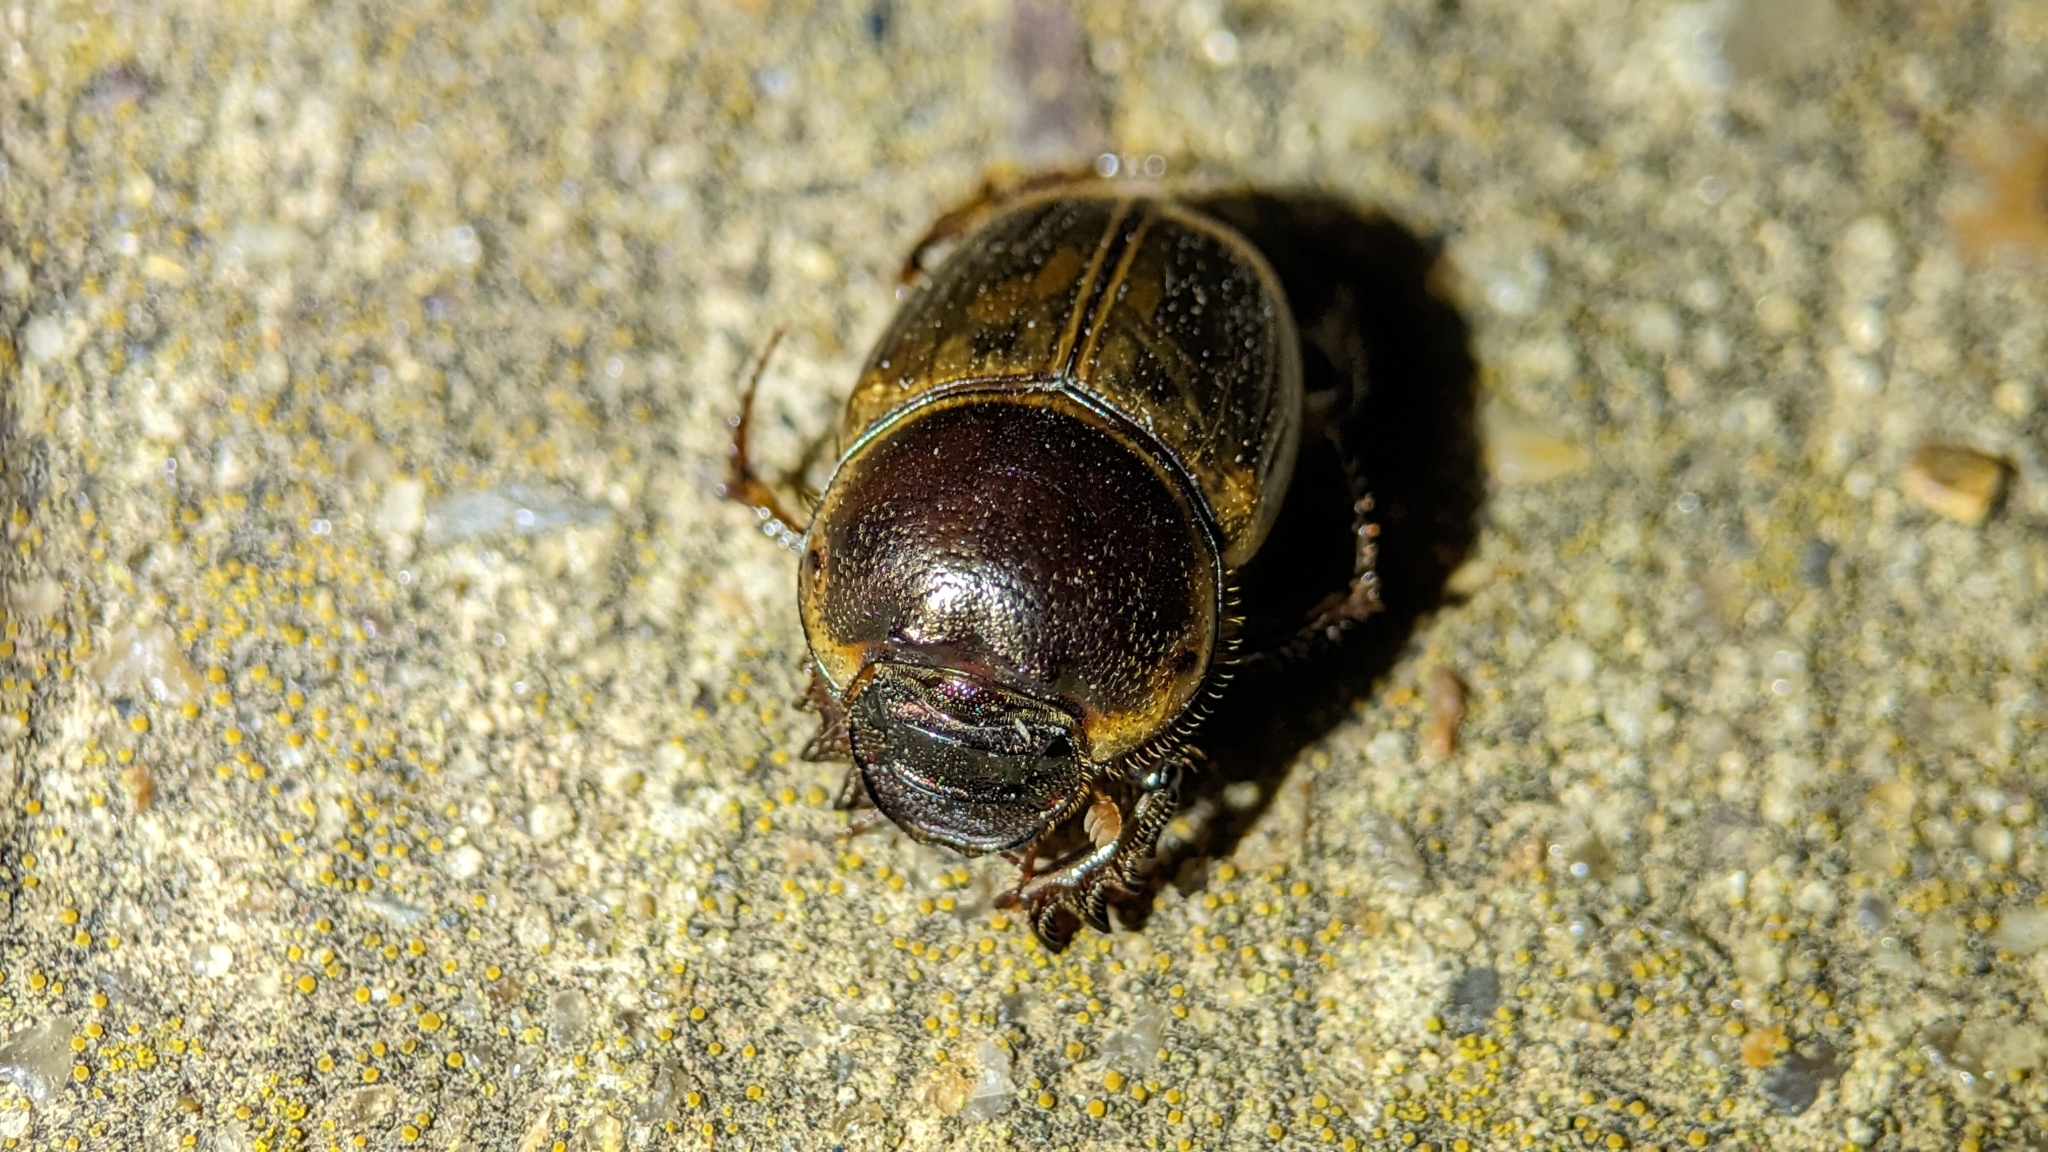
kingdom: Animalia
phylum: Arthropoda
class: Insecta
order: Coleoptera
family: Scarabaeidae
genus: Digitonthophagus
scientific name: Digitonthophagus gazella
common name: Brown dung beetle
